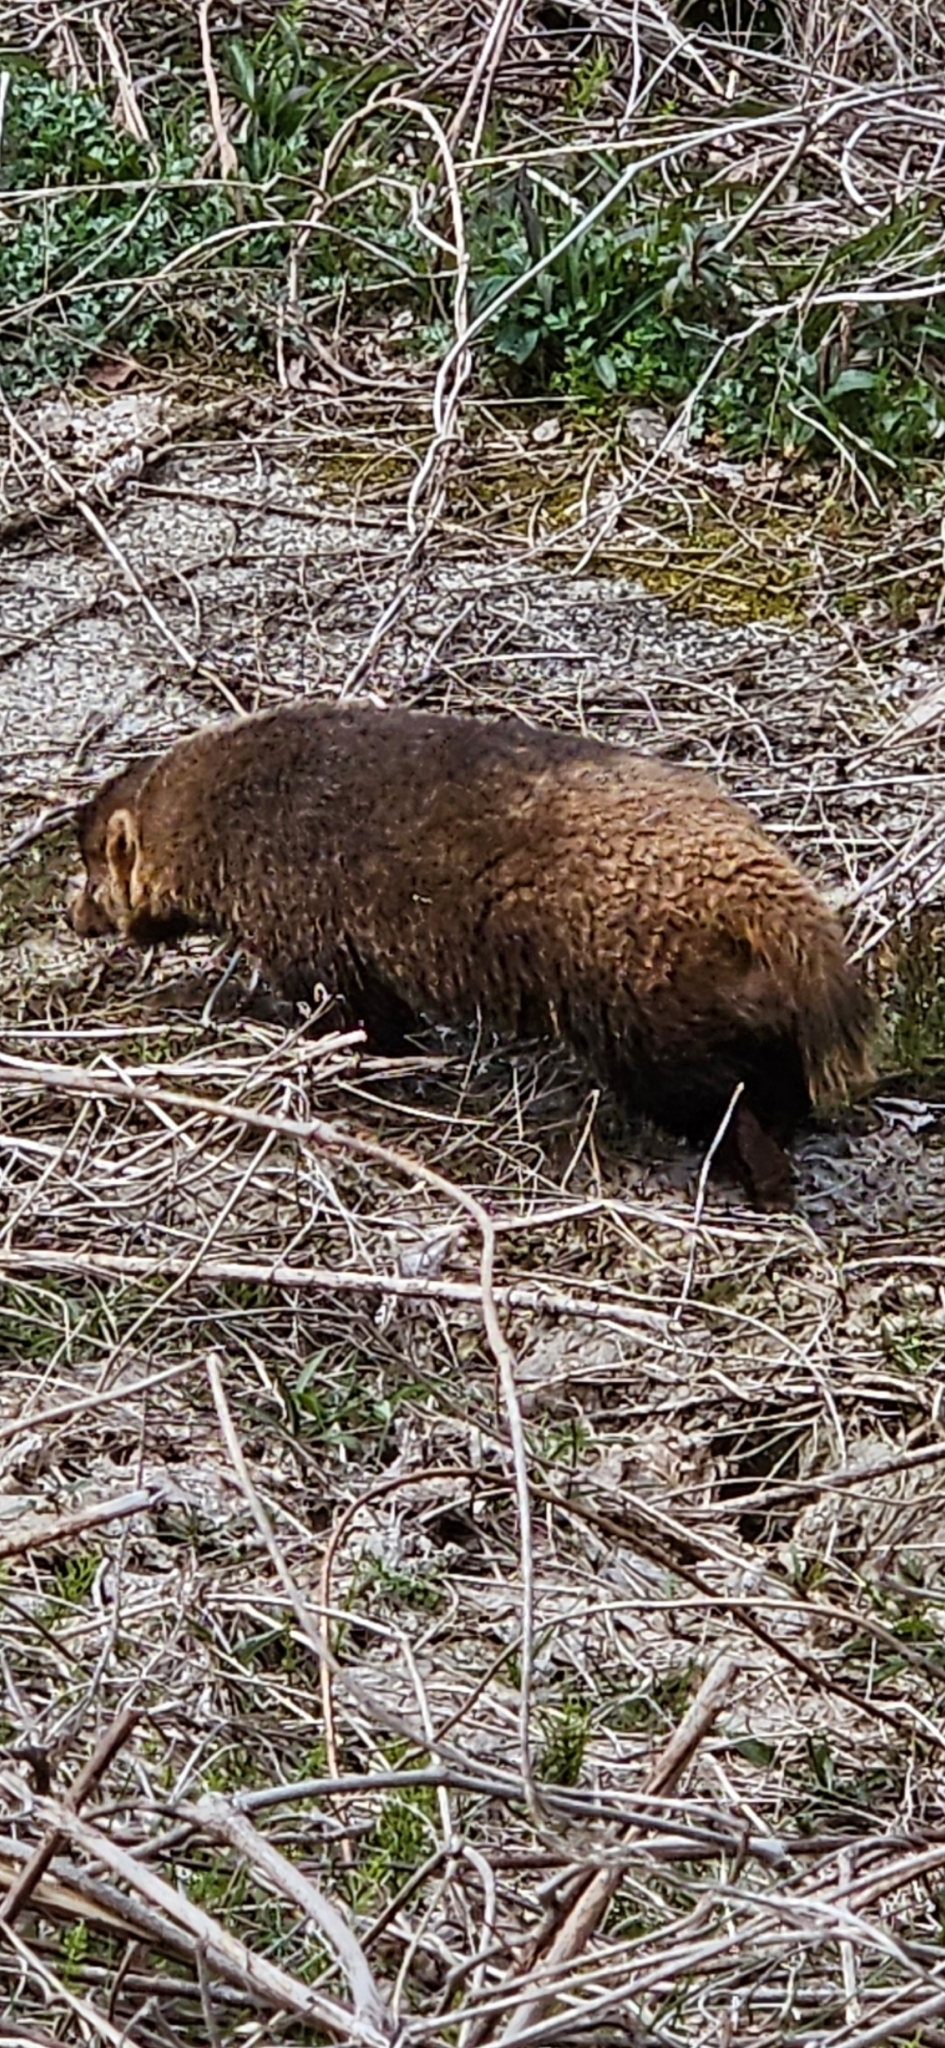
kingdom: Animalia
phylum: Chordata
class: Mammalia
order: Carnivora
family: Mustelidae
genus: Meles
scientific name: Meles anakuma
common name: Japanese badger
